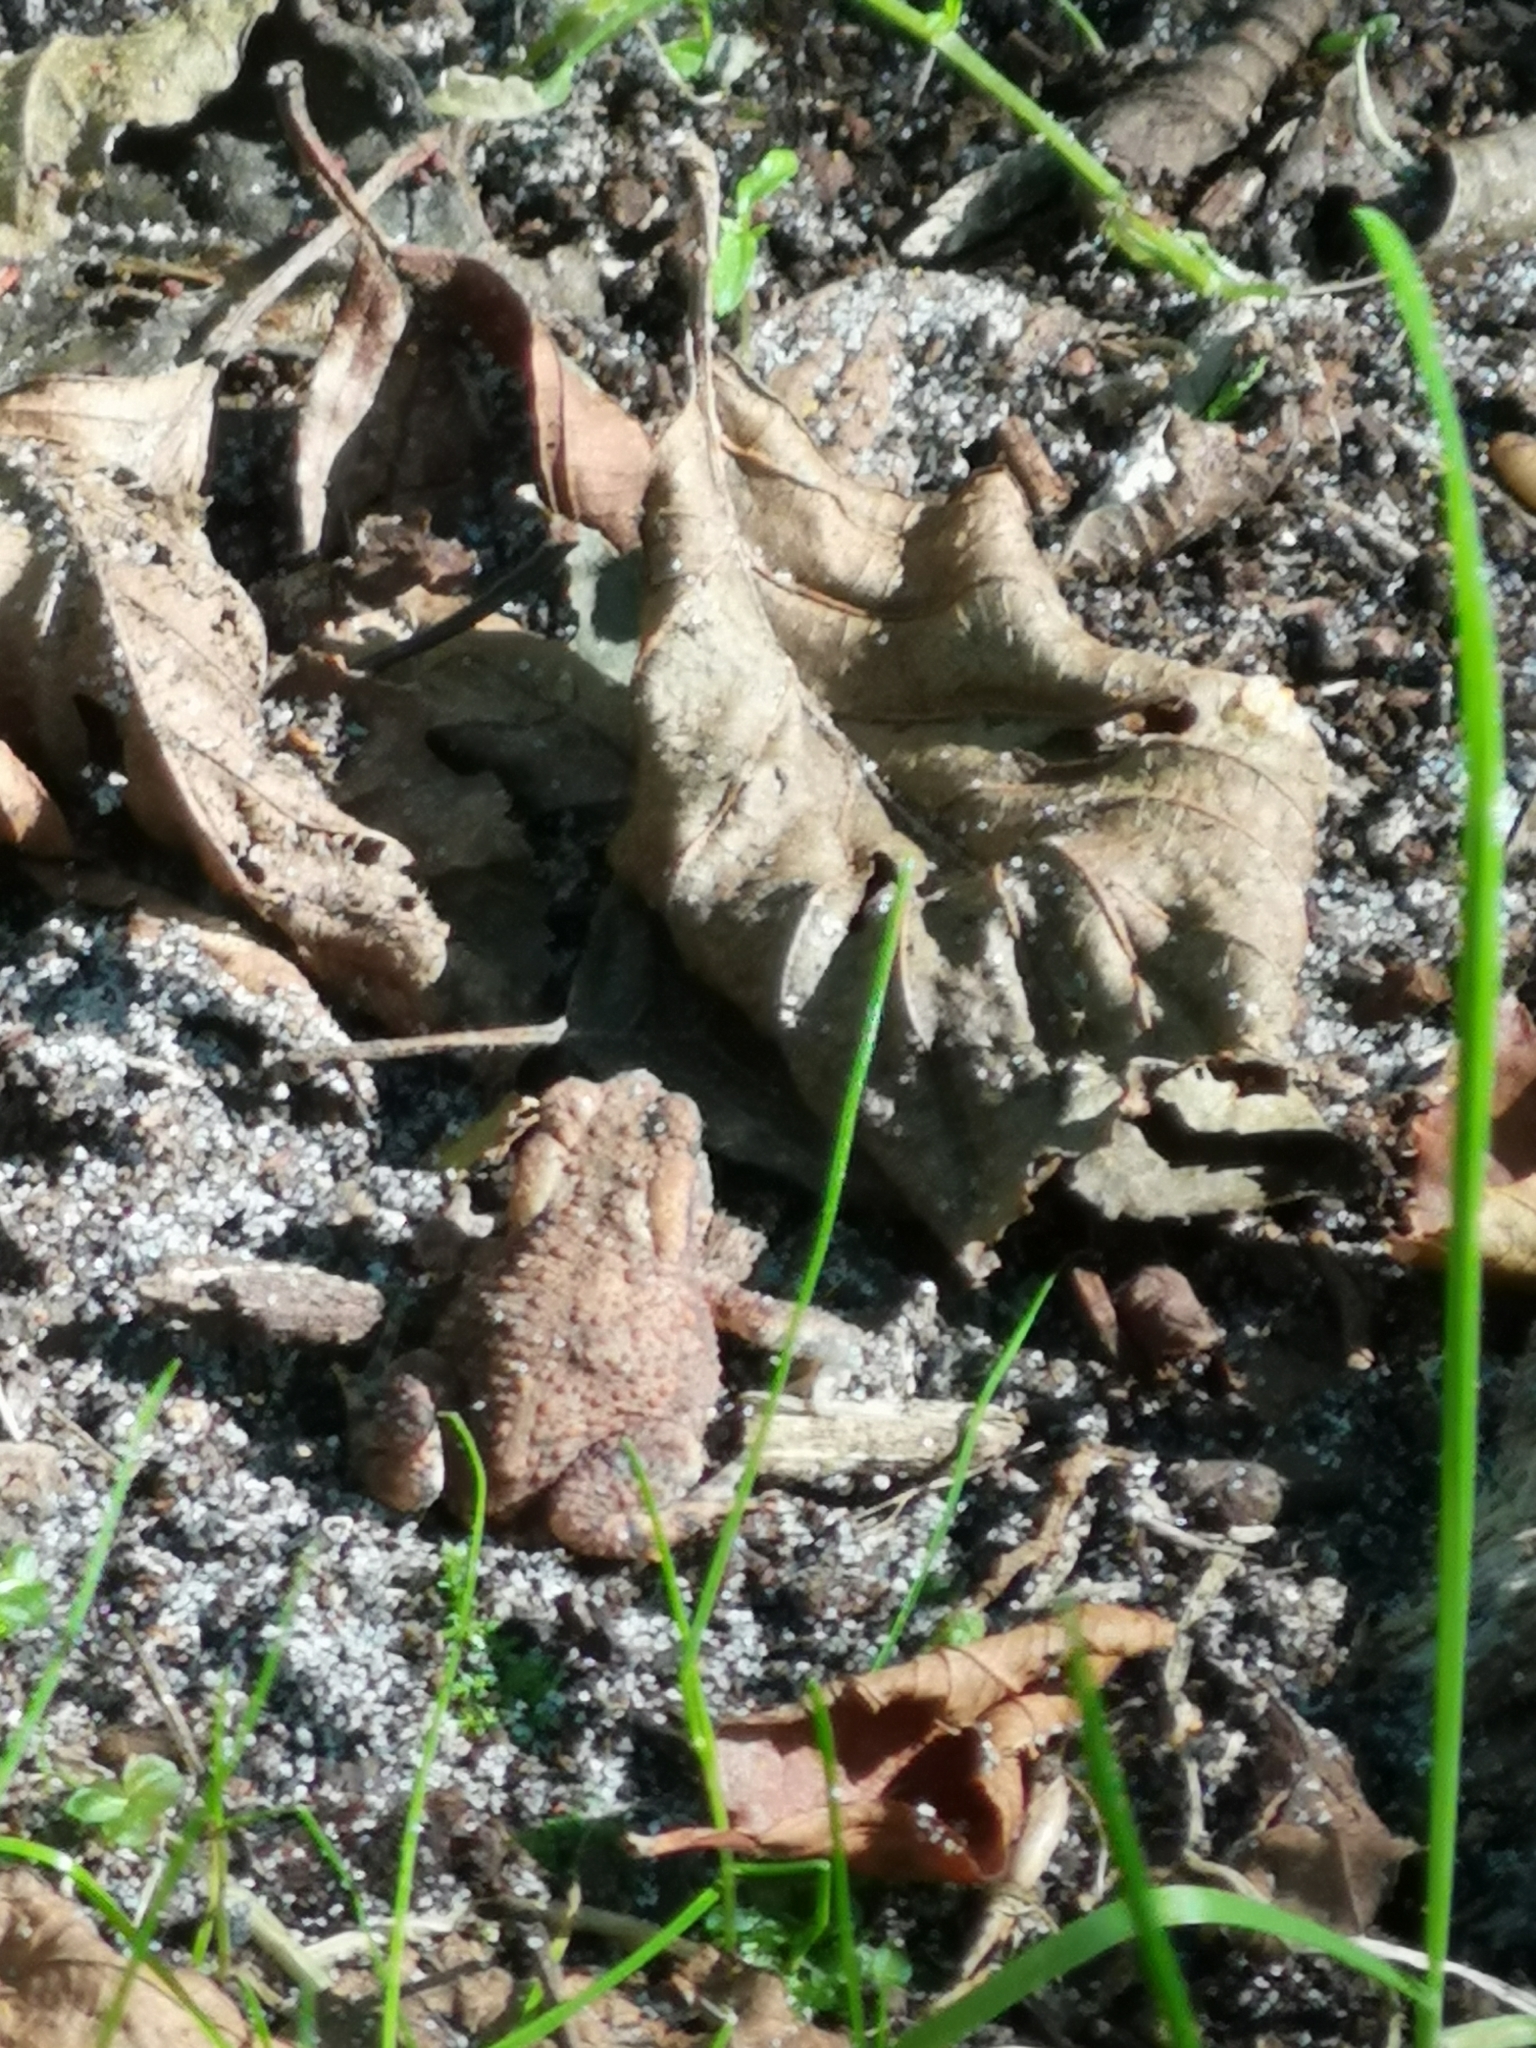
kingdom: Animalia
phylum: Chordata
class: Amphibia
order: Anura
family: Bufonidae
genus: Bufo
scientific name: Bufo bufo
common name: Common toad
